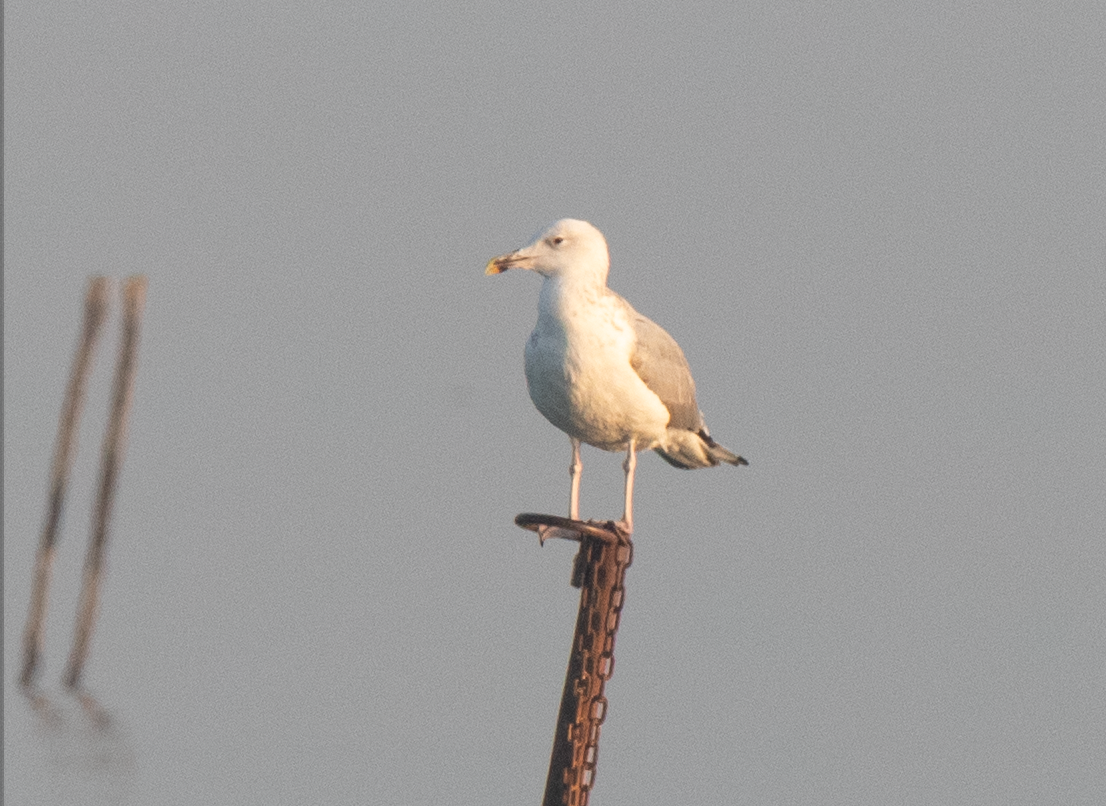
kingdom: Animalia
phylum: Chordata
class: Aves
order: Charadriiformes
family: Laridae
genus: Larus
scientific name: Larus cachinnans
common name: Caspian gull
